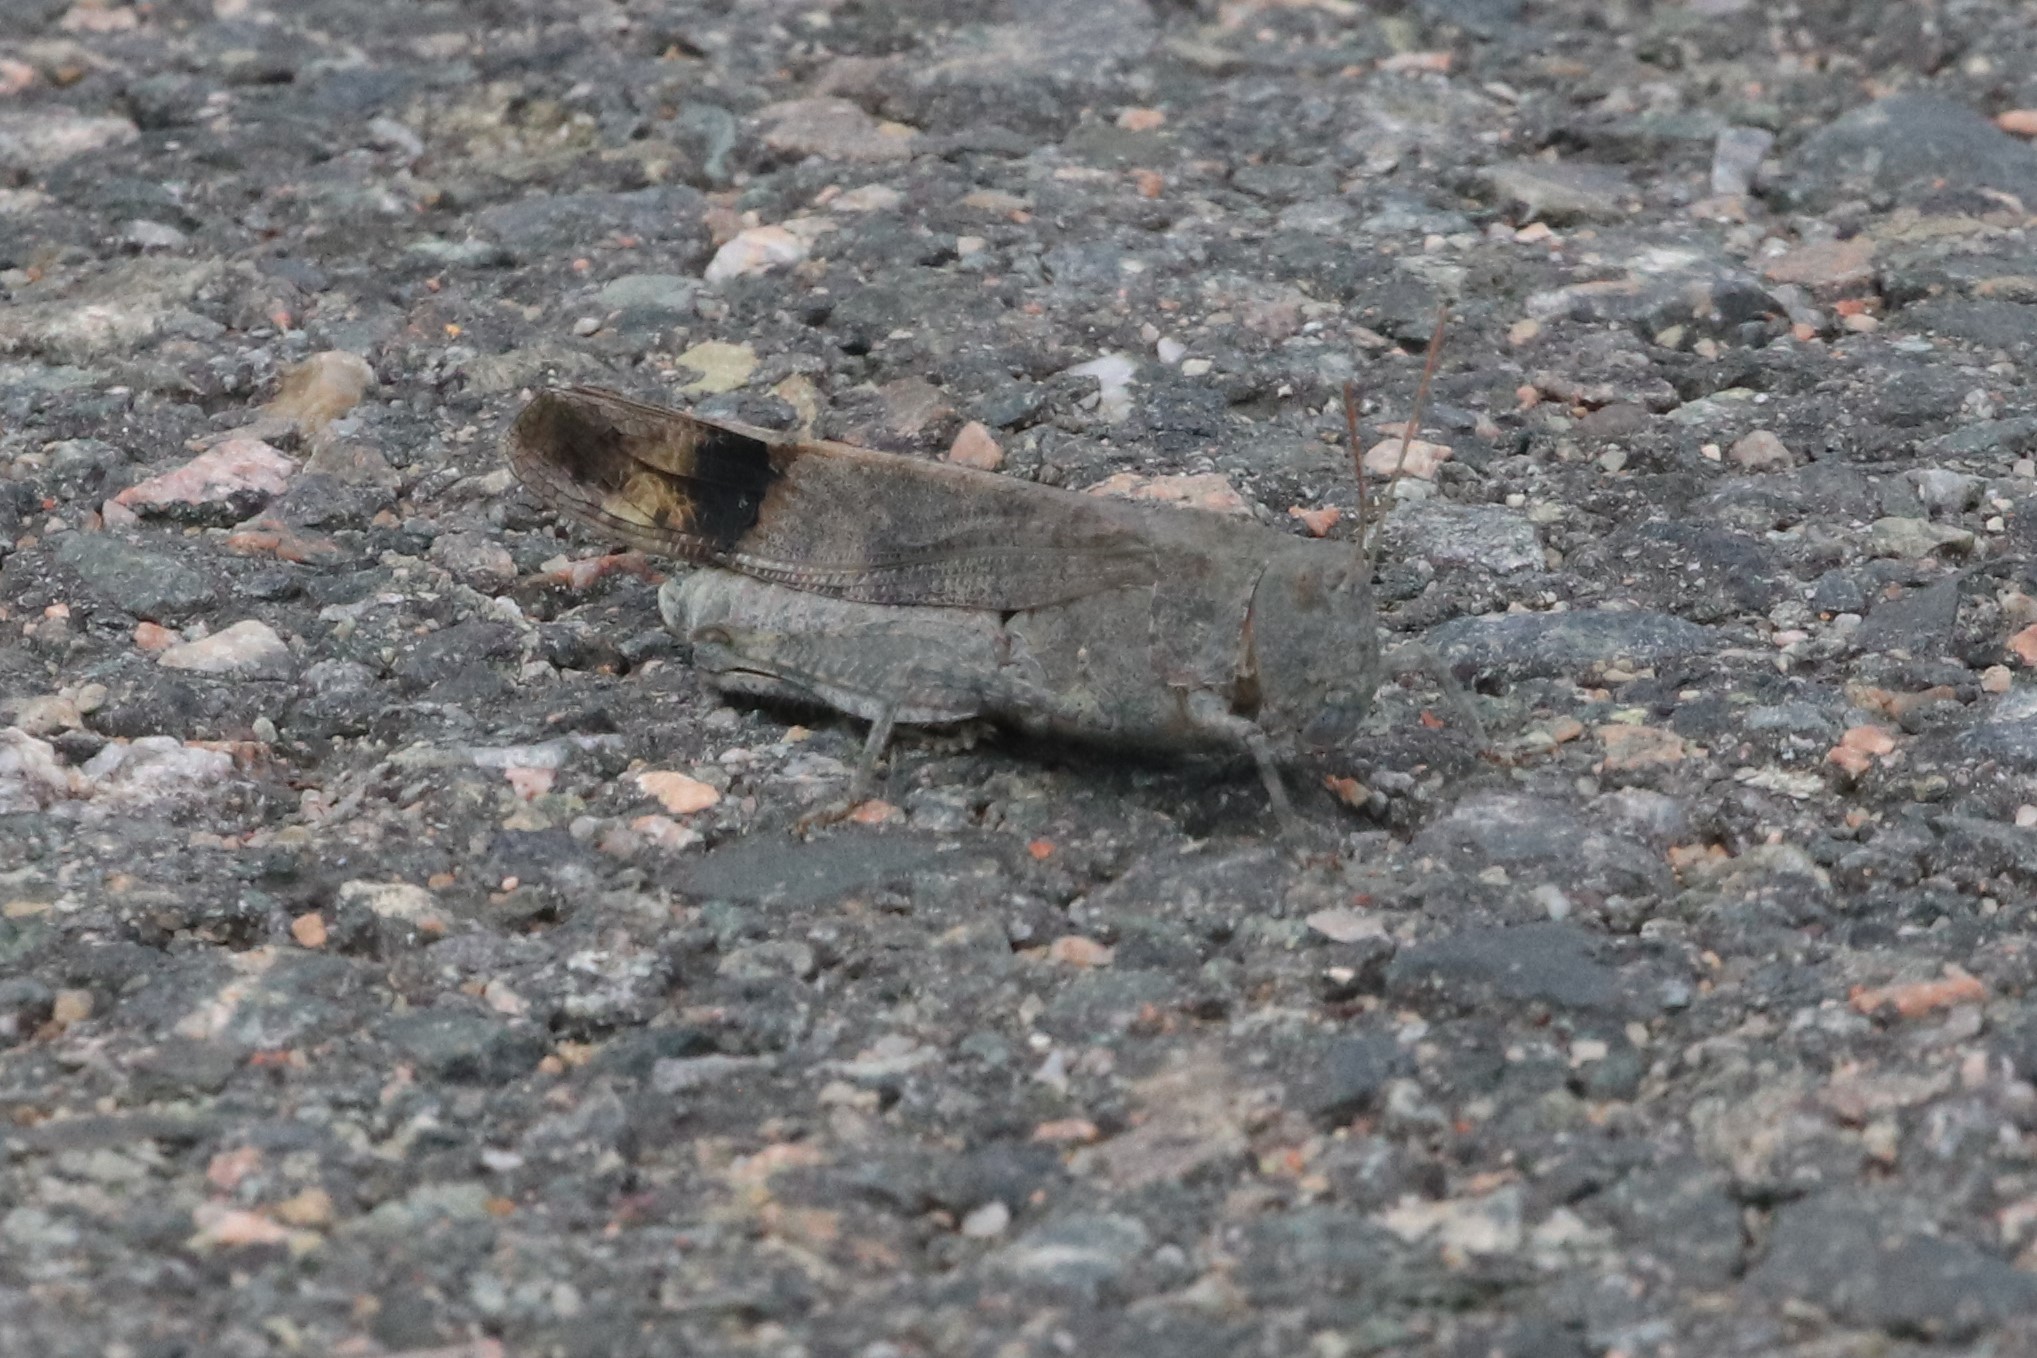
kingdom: Animalia
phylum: Arthropoda
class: Insecta
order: Orthoptera
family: Acrididae
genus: Dissosteira
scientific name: Dissosteira carolina
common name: Carolina grasshopper
